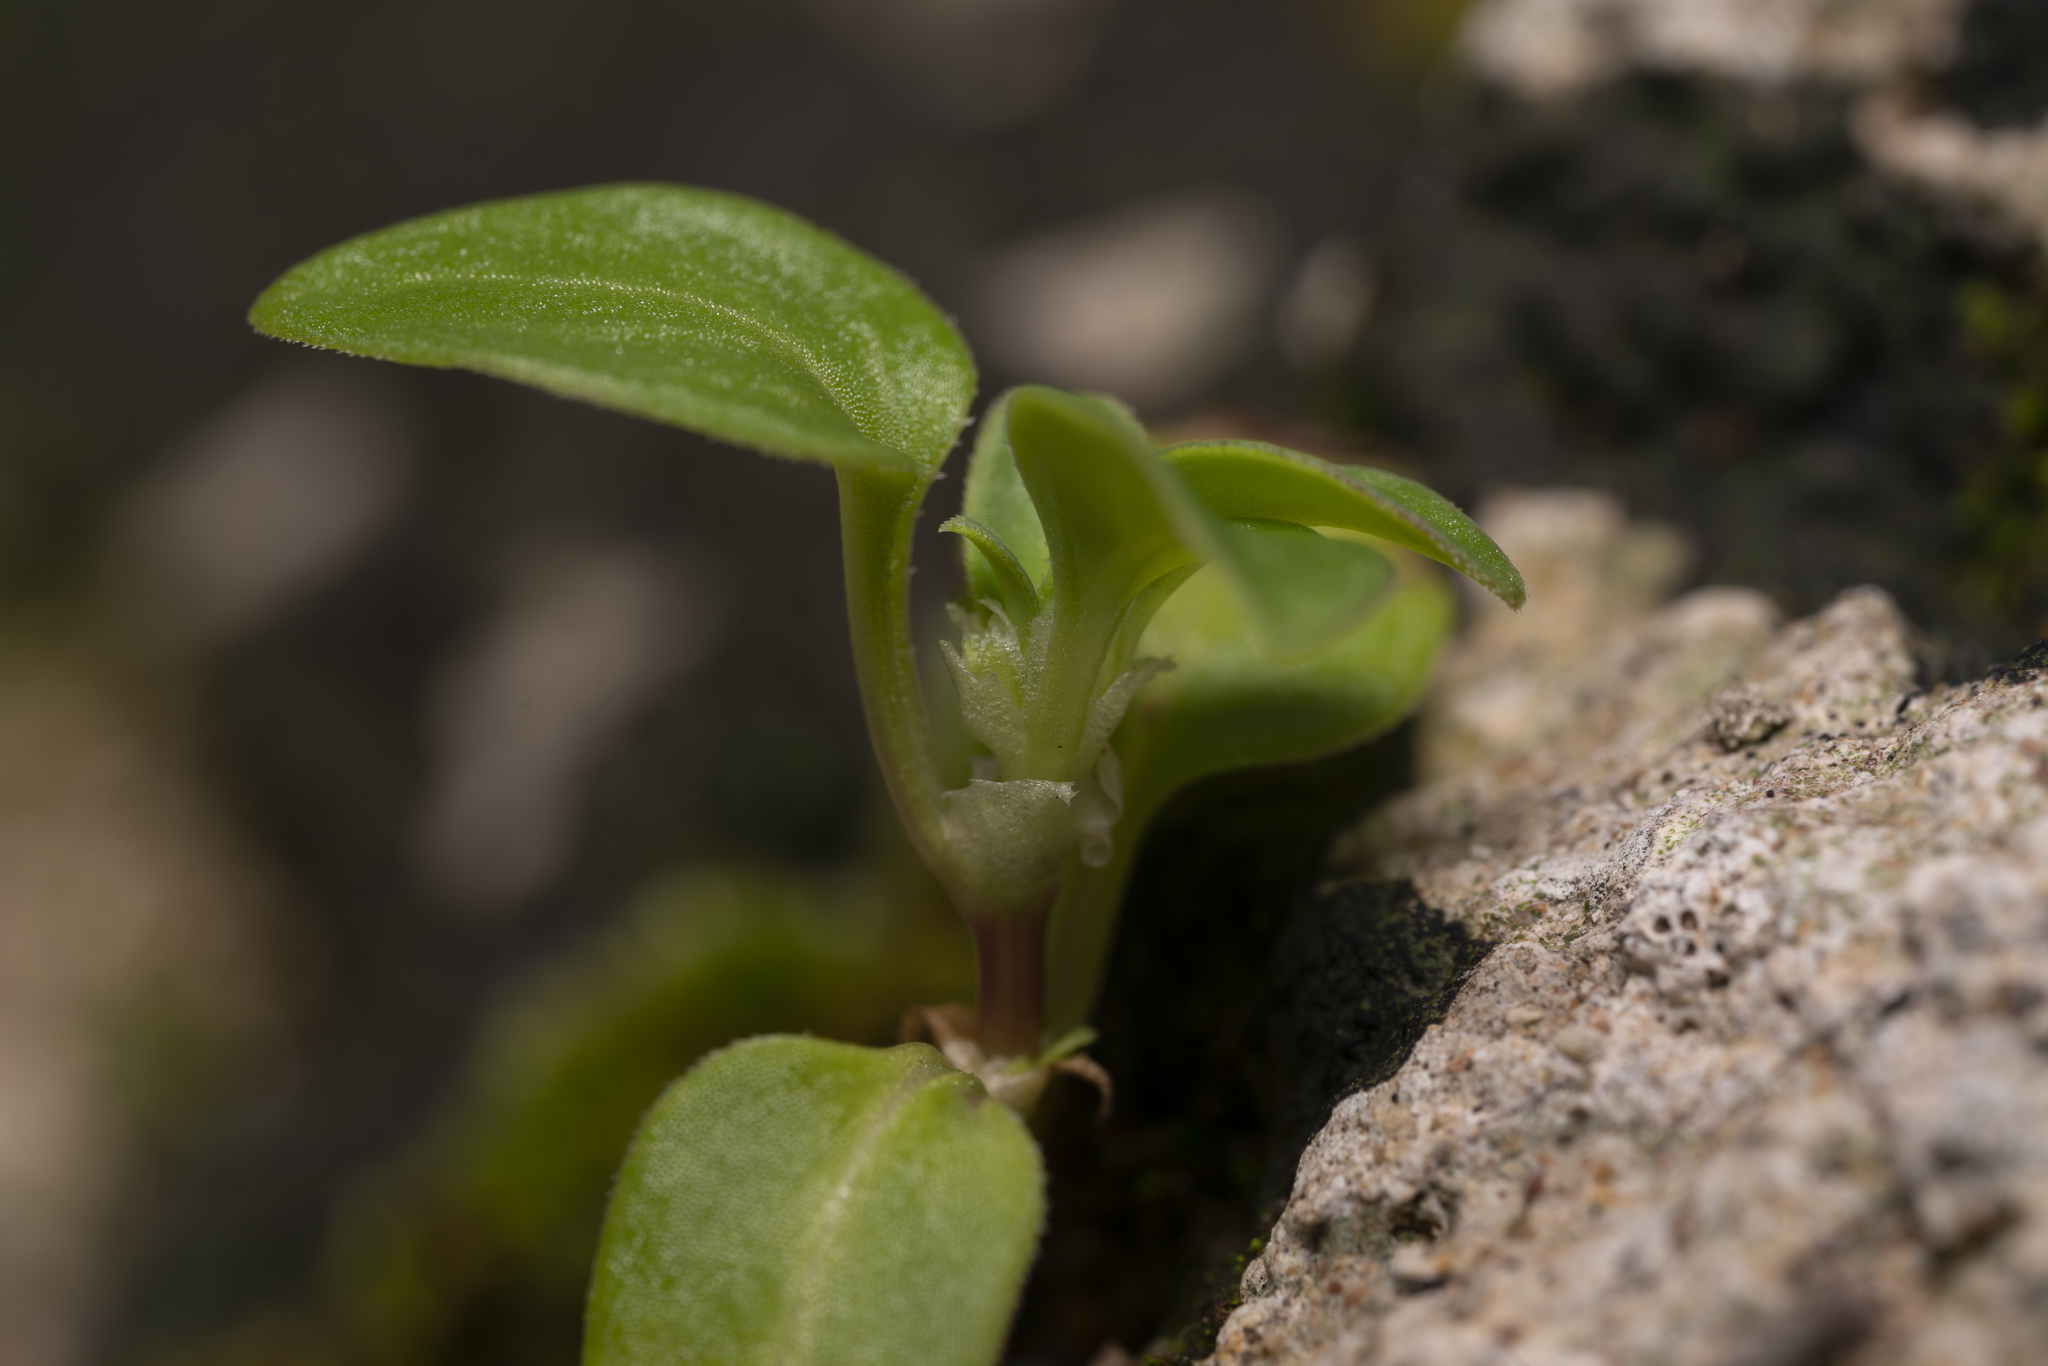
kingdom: Plantae
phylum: Tracheophyta
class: Magnoliopsida
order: Gentianales
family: Rubiaceae
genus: Theligonum
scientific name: Theligonum cynocrambe
